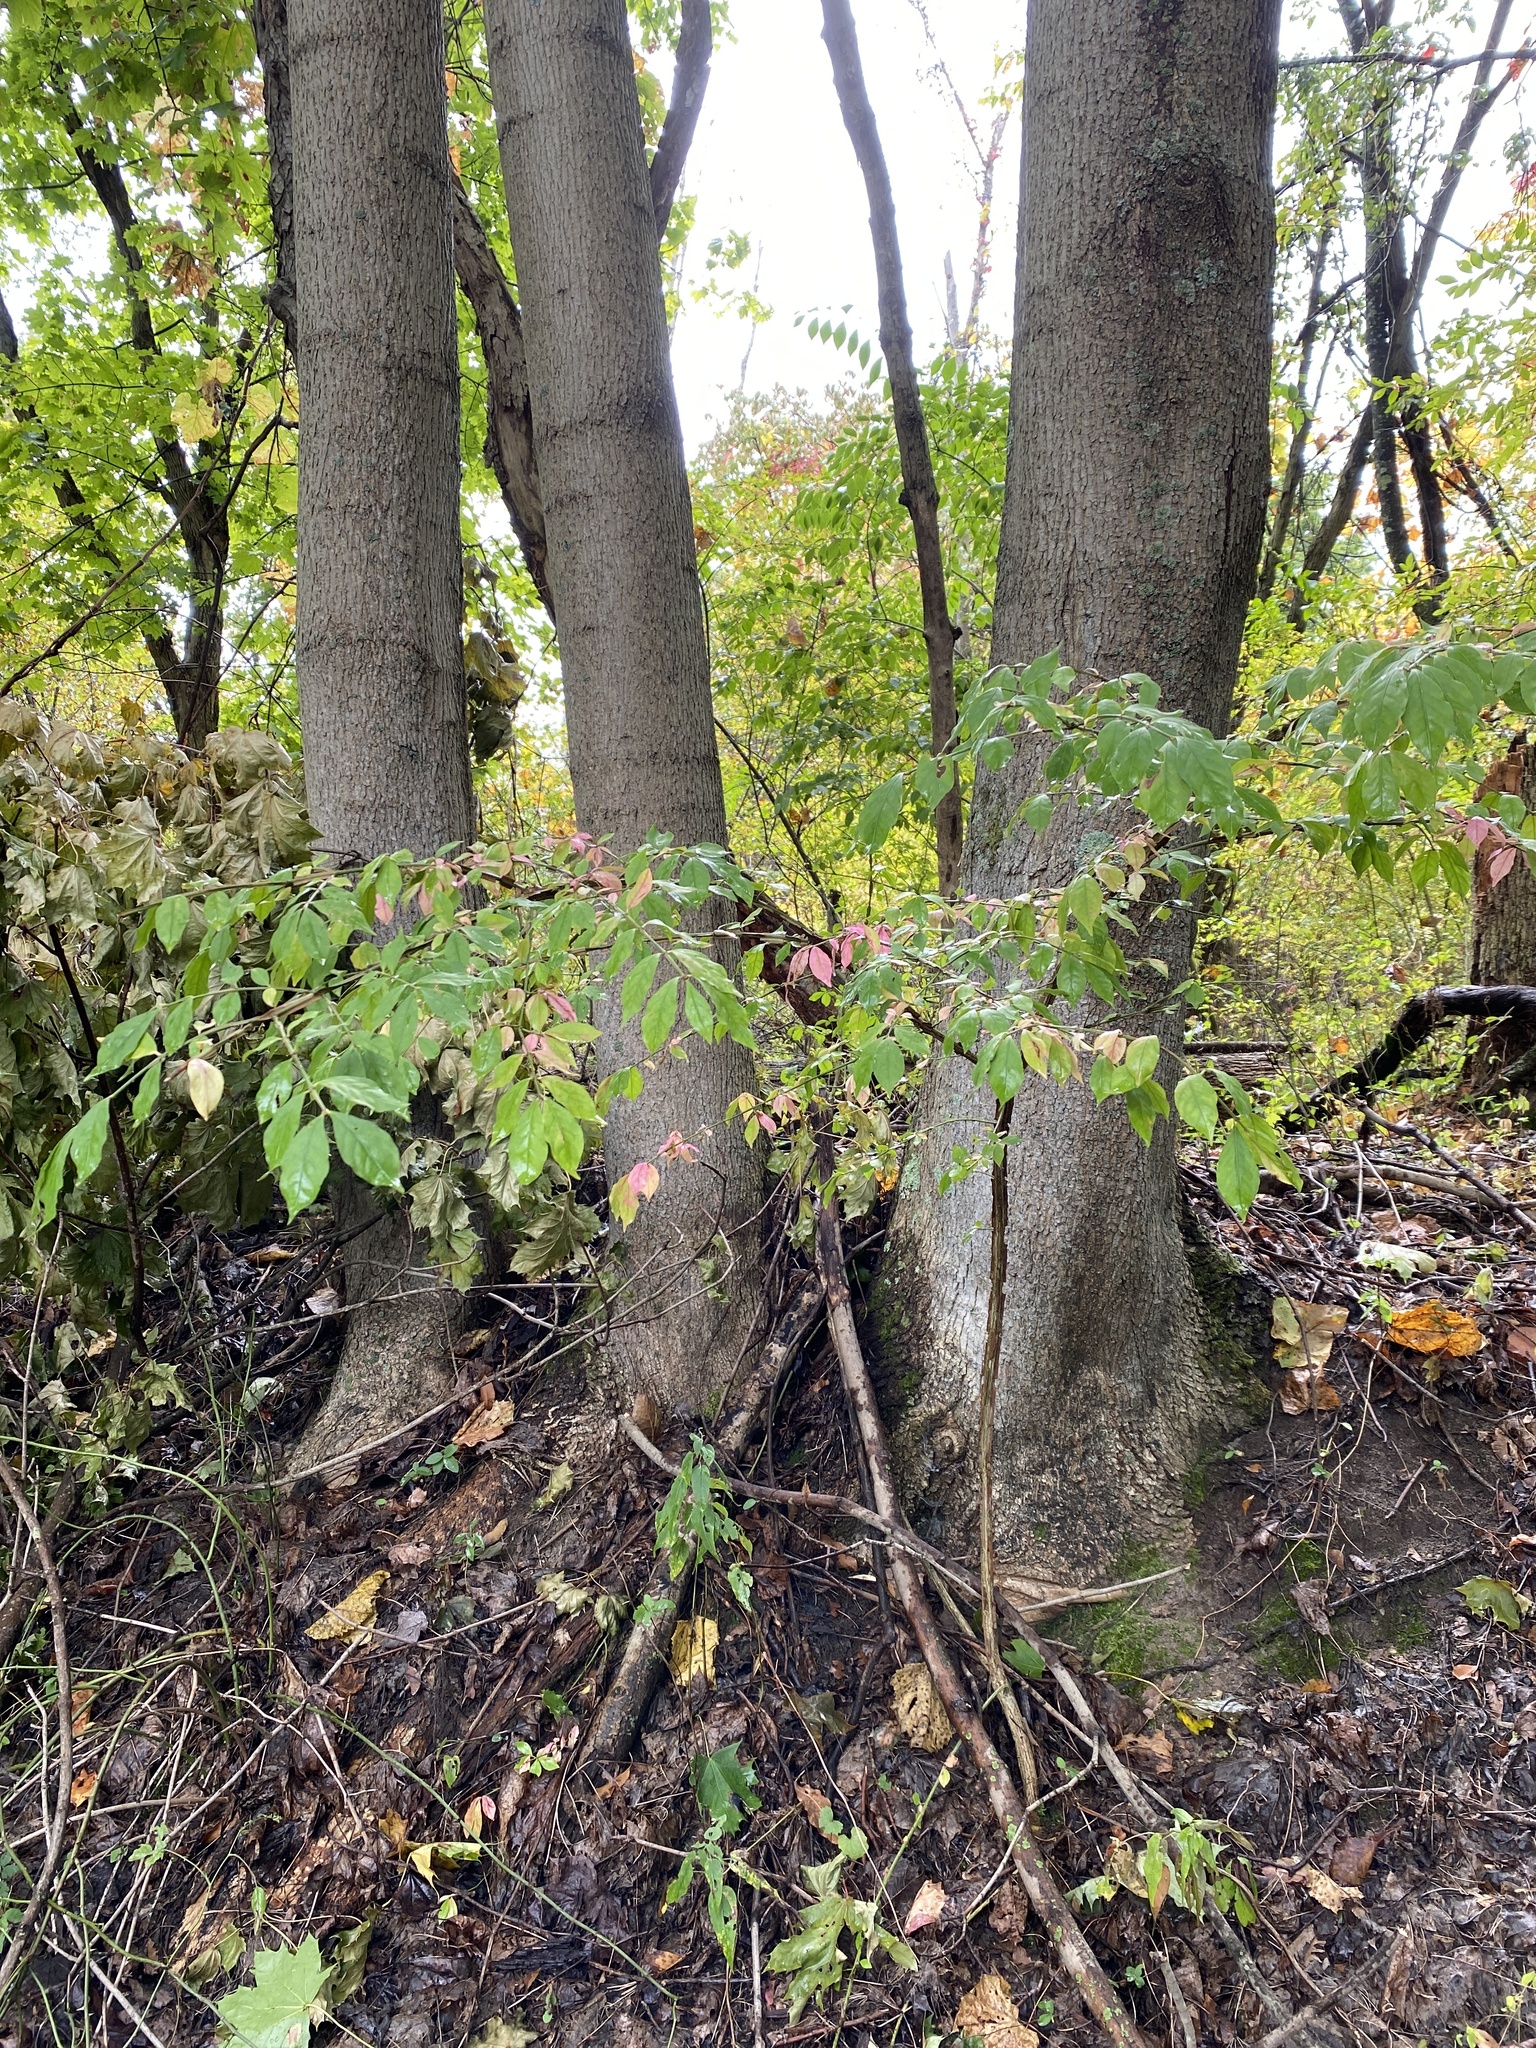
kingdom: Plantae
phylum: Tracheophyta
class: Magnoliopsida
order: Celastrales
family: Celastraceae
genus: Euonymus
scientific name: Euonymus alatus
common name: Winged euonymus
